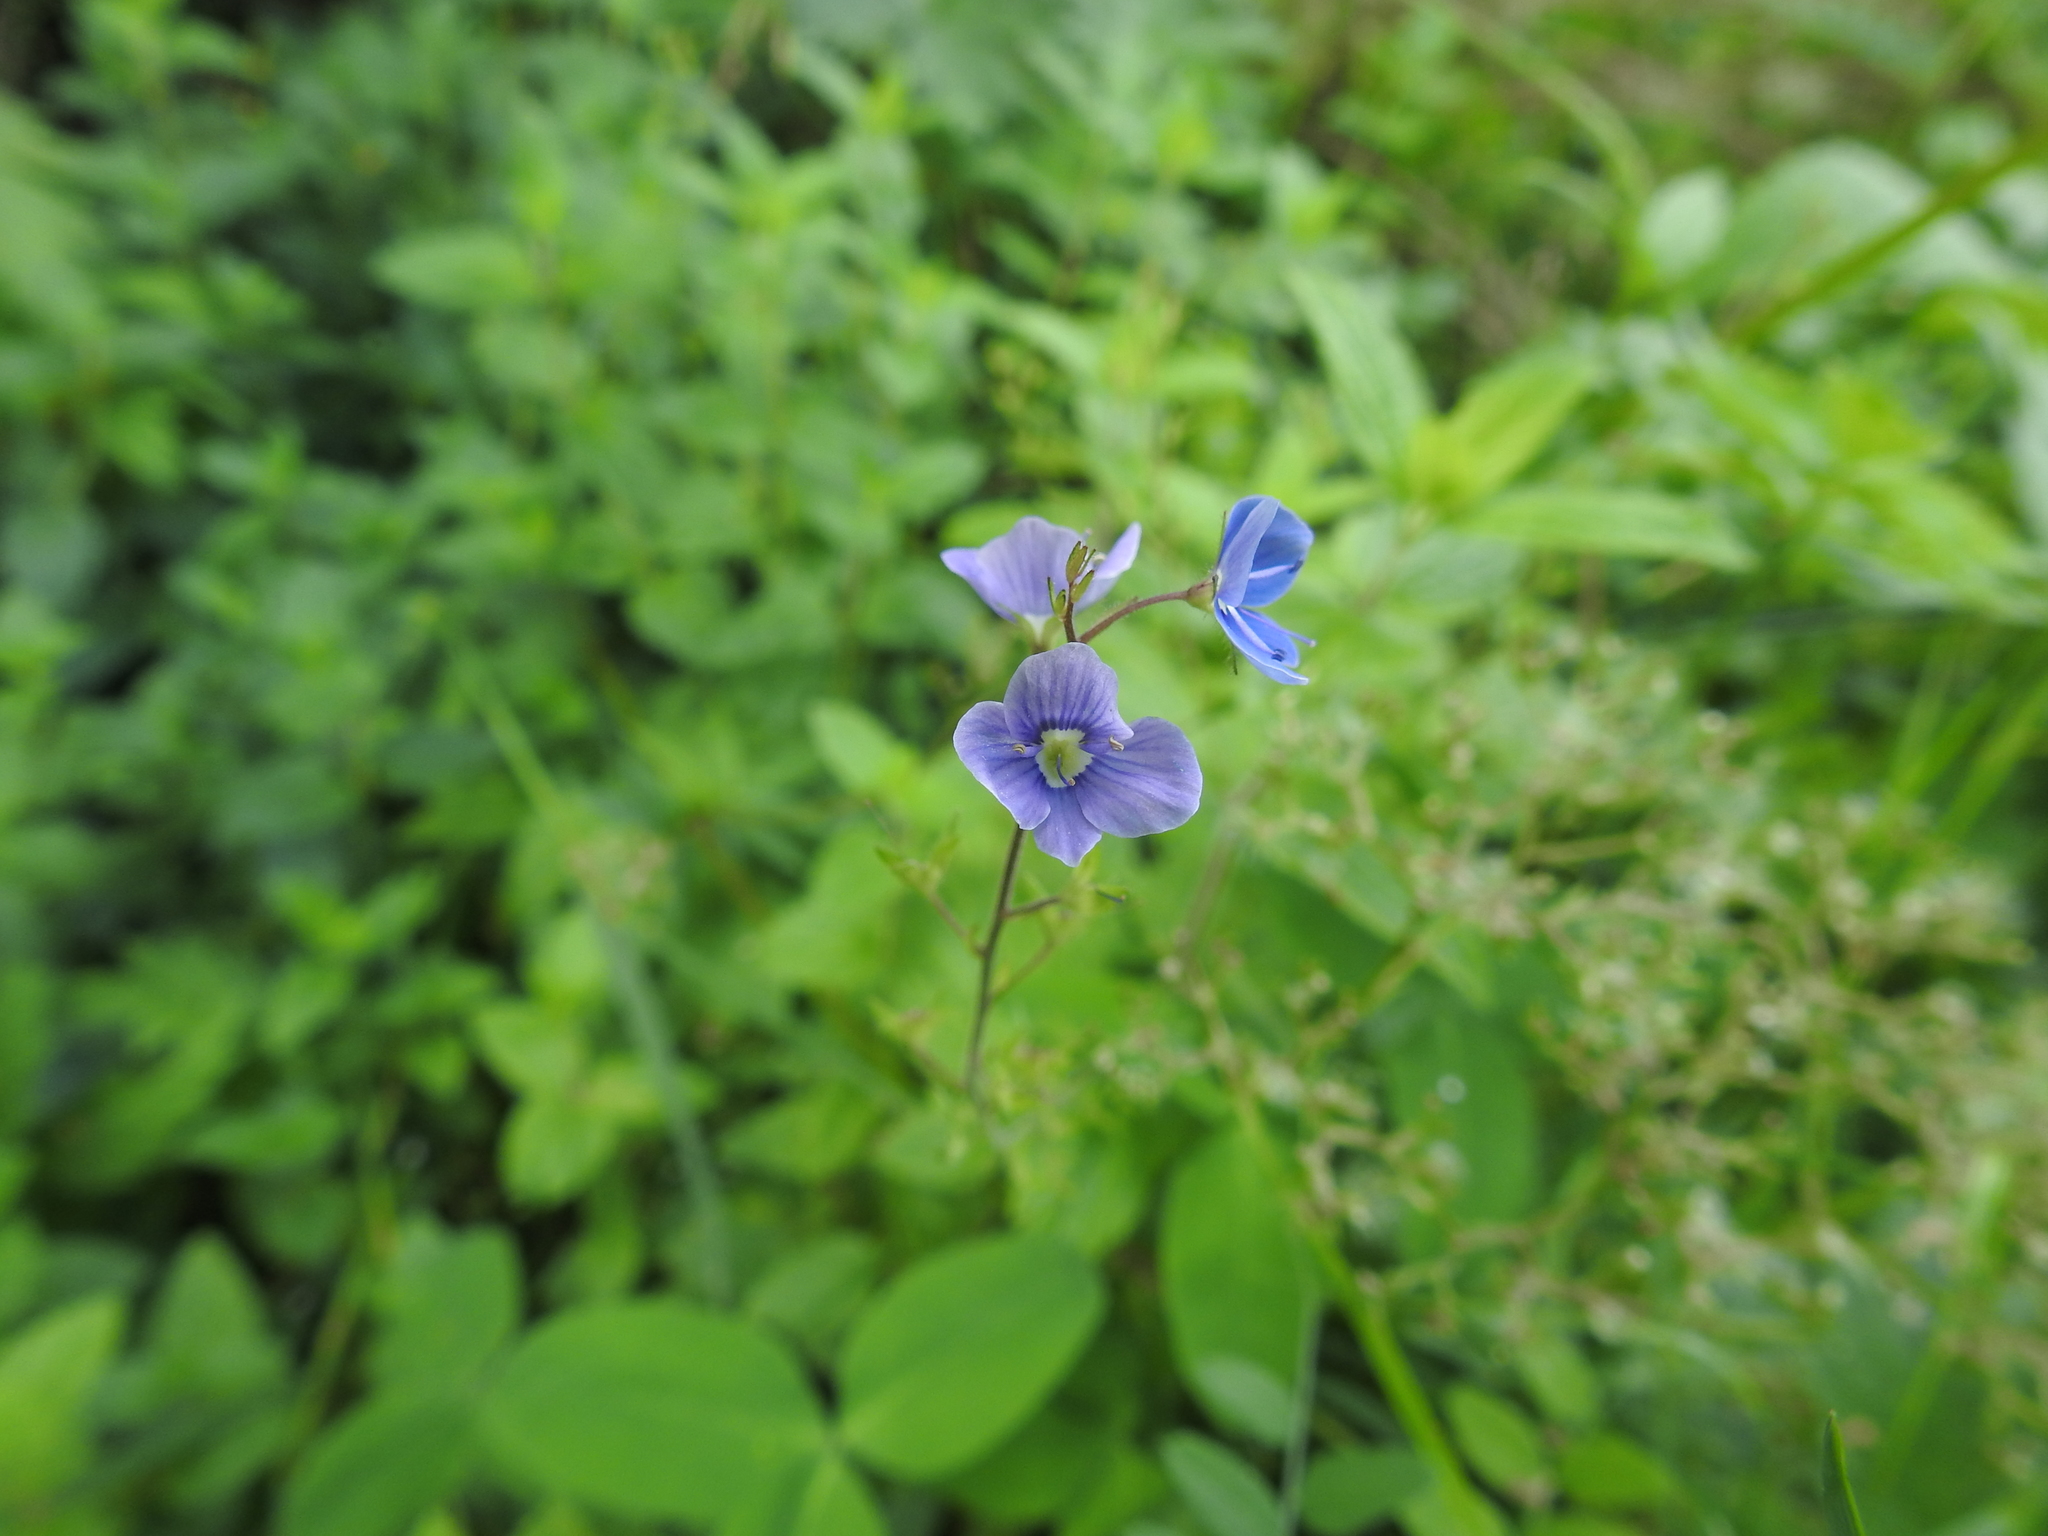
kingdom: Plantae
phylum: Tracheophyta
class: Magnoliopsida
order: Lamiales
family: Plantaginaceae
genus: Veronica
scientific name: Veronica chamaedrys
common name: Germander speedwell
